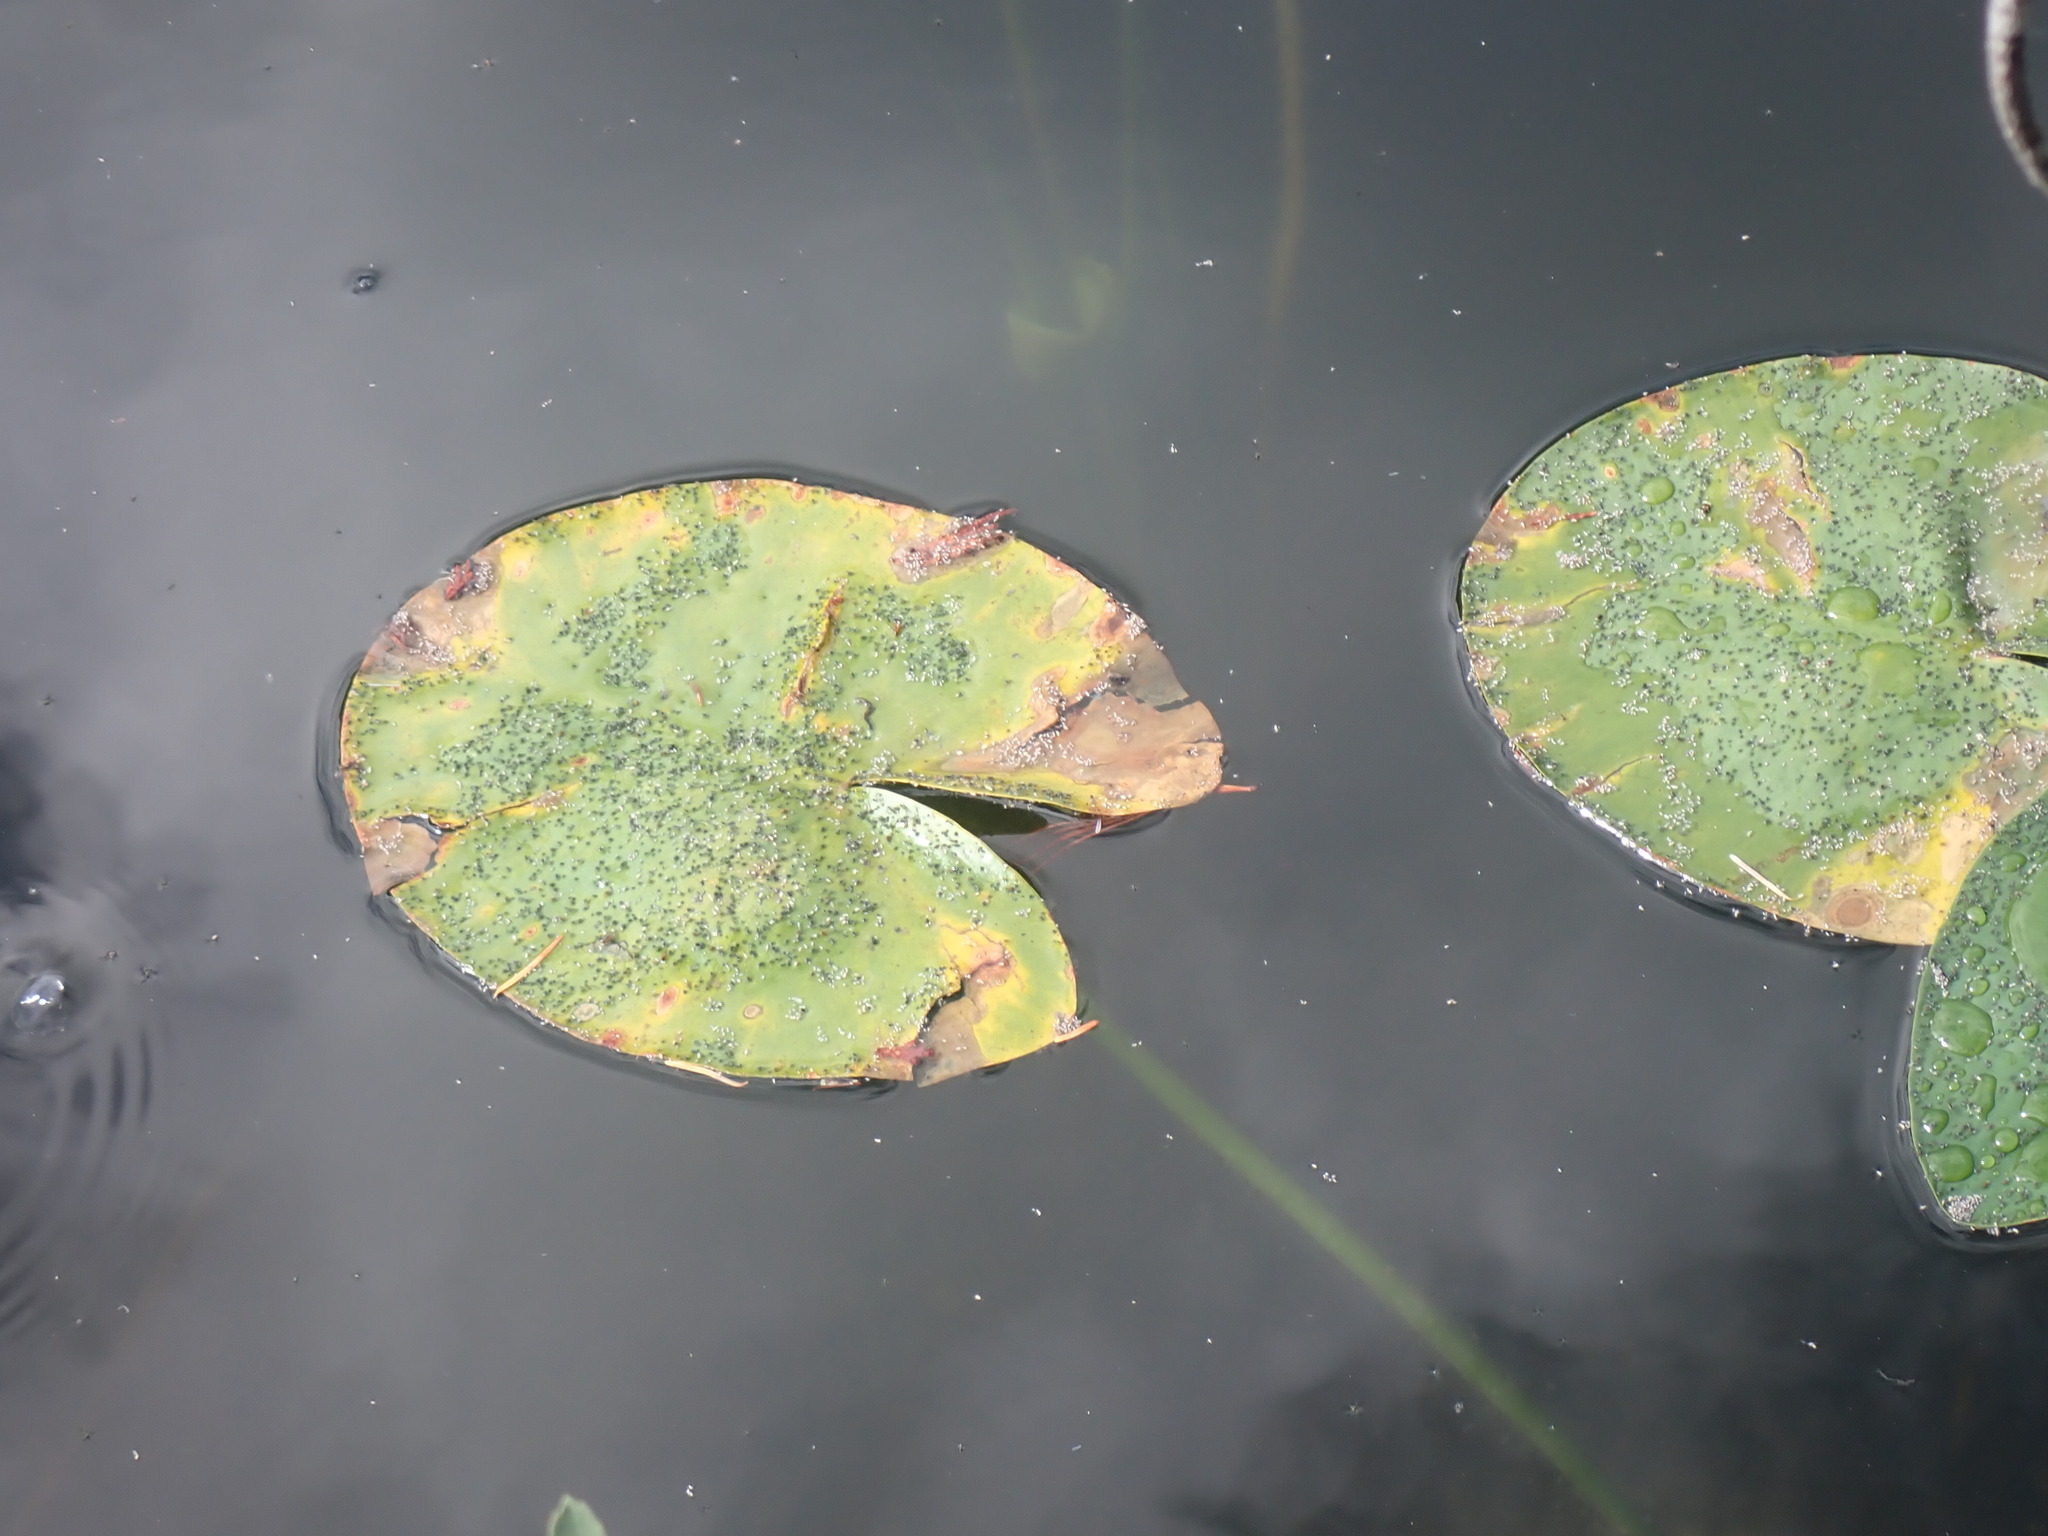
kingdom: Plantae
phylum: Tracheophyta
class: Magnoliopsida
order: Nymphaeales
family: Nymphaeaceae
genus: Nuphar
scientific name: Nuphar polysepala
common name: Rocky mountain cow-lily
